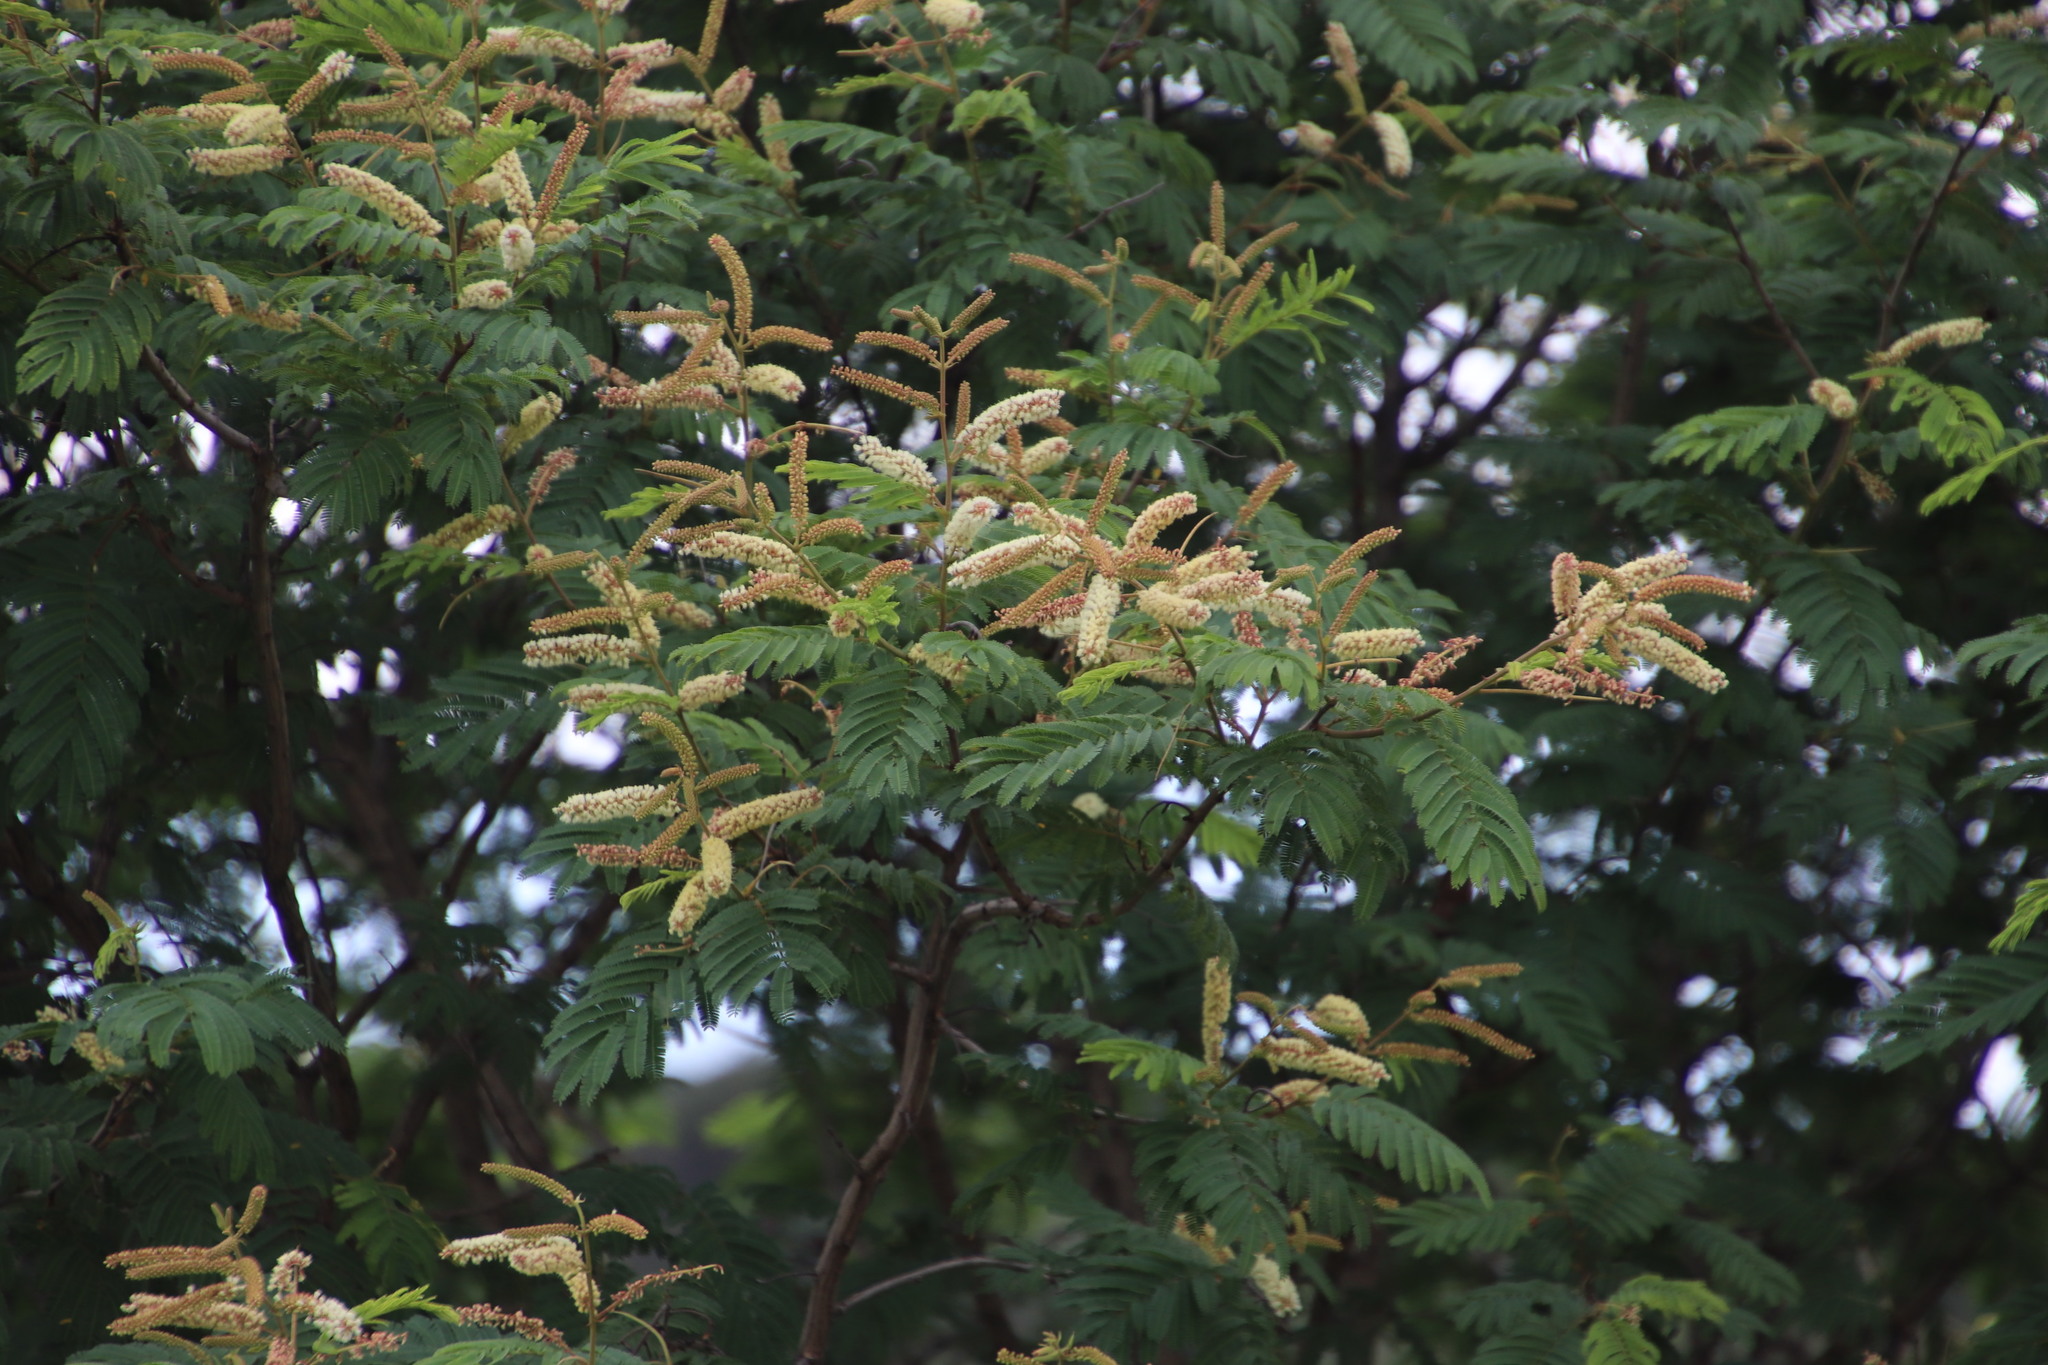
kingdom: Plantae
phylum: Tracheophyta
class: Magnoliopsida
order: Fabales
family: Fabaceae
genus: Senegalia
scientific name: Senegalia caffra
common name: Cat thorn
